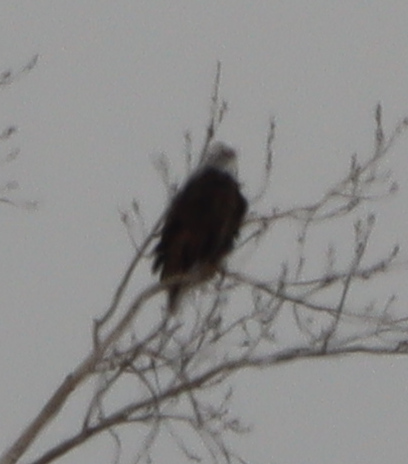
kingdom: Animalia
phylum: Chordata
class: Aves
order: Accipitriformes
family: Accipitridae
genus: Haliaeetus
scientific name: Haliaeetus leucocephalus
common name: Bald eagle
